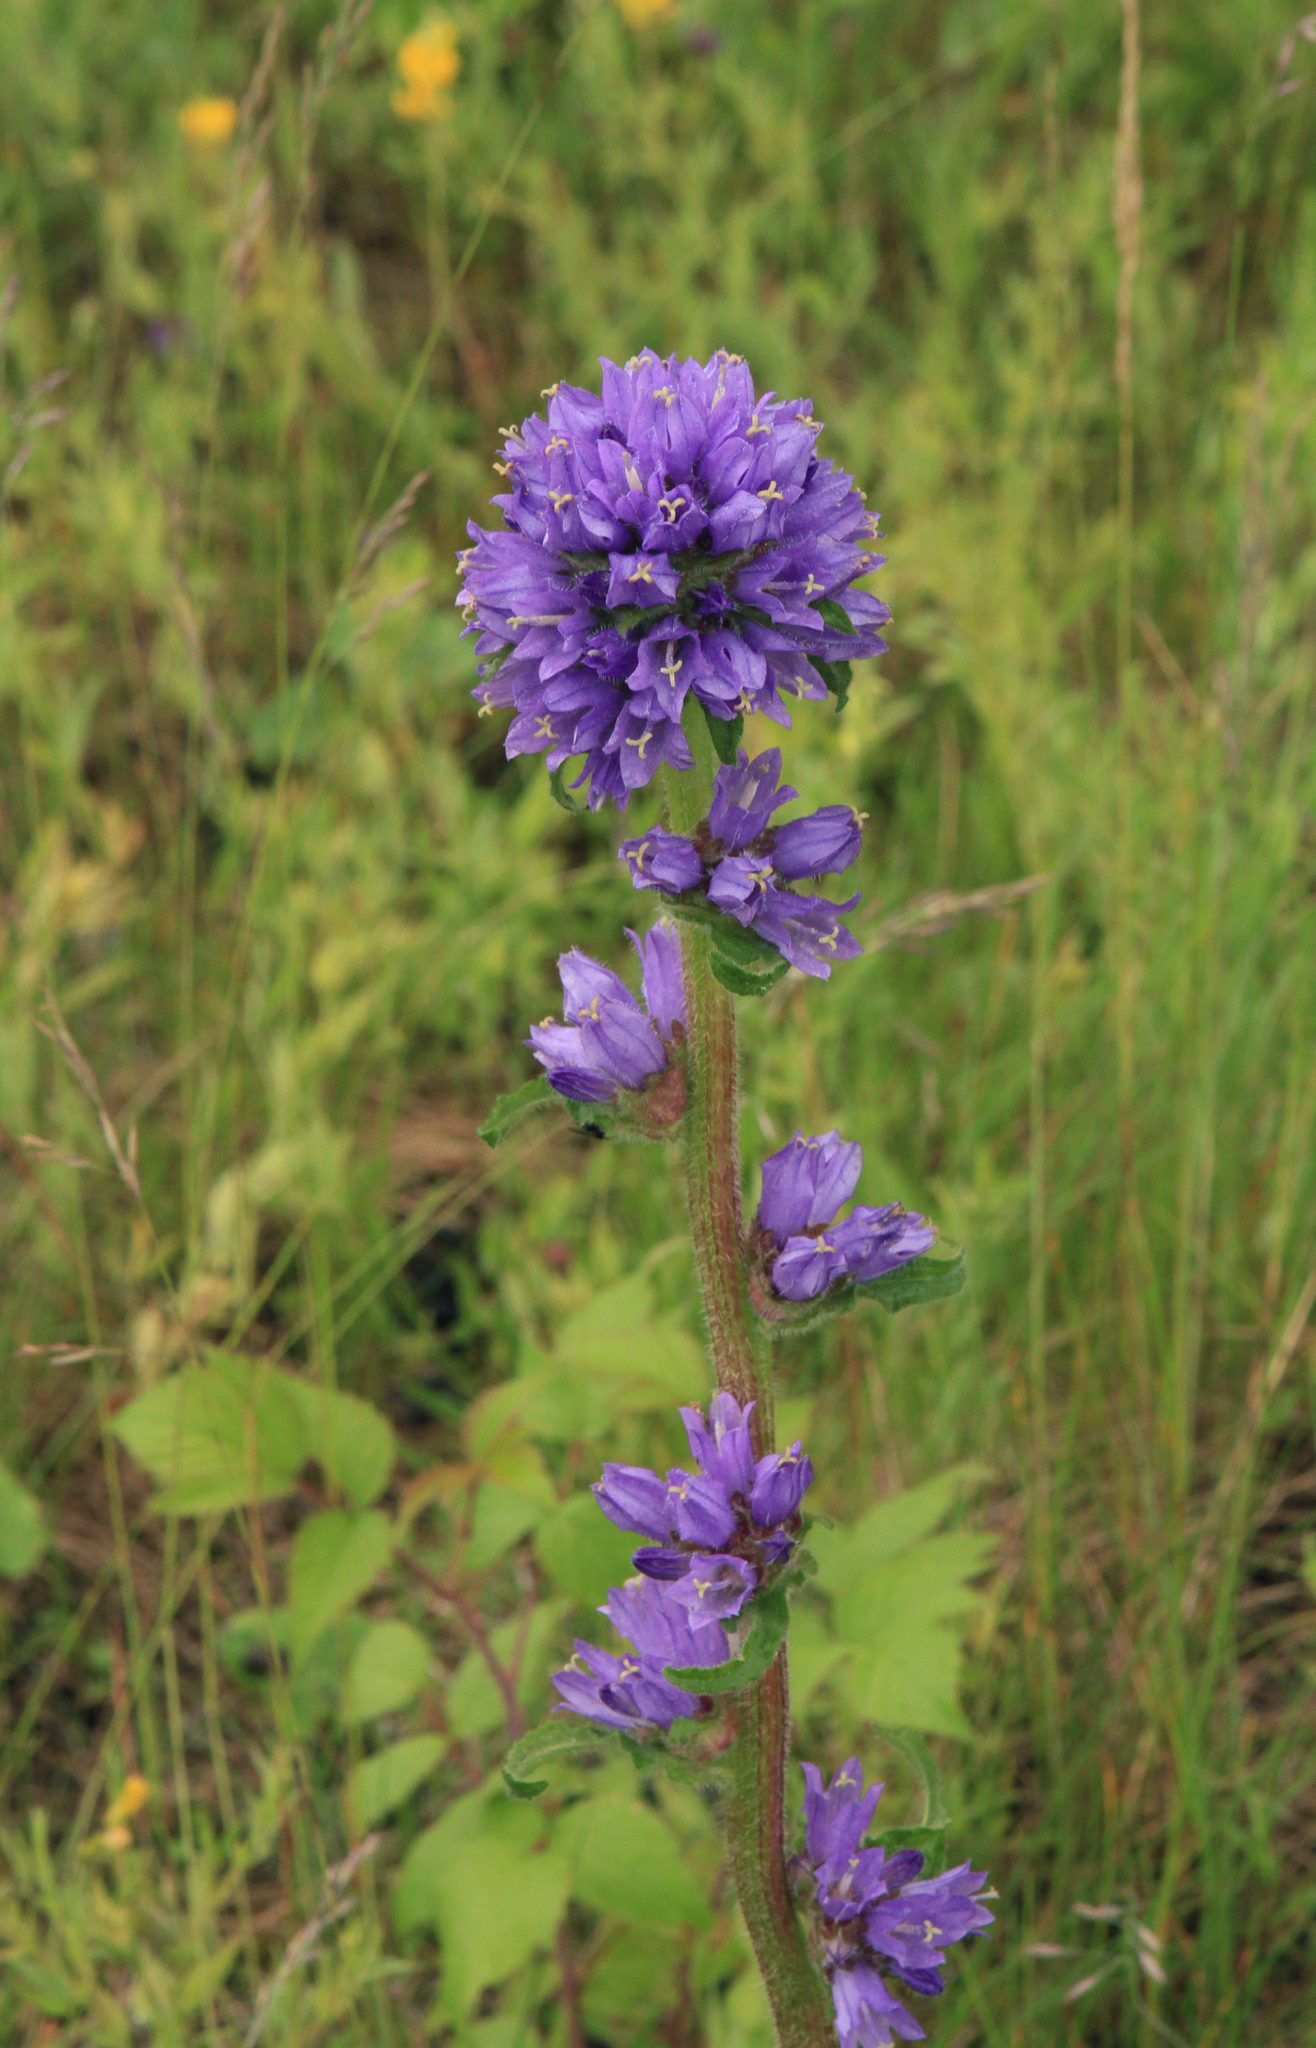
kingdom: Plantae
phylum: Tracheophyta
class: Magnoliopsida
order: Asterales
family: Campanulaceae
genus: Campanula
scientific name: Campanula cervicaria
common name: Bristly bellflower
